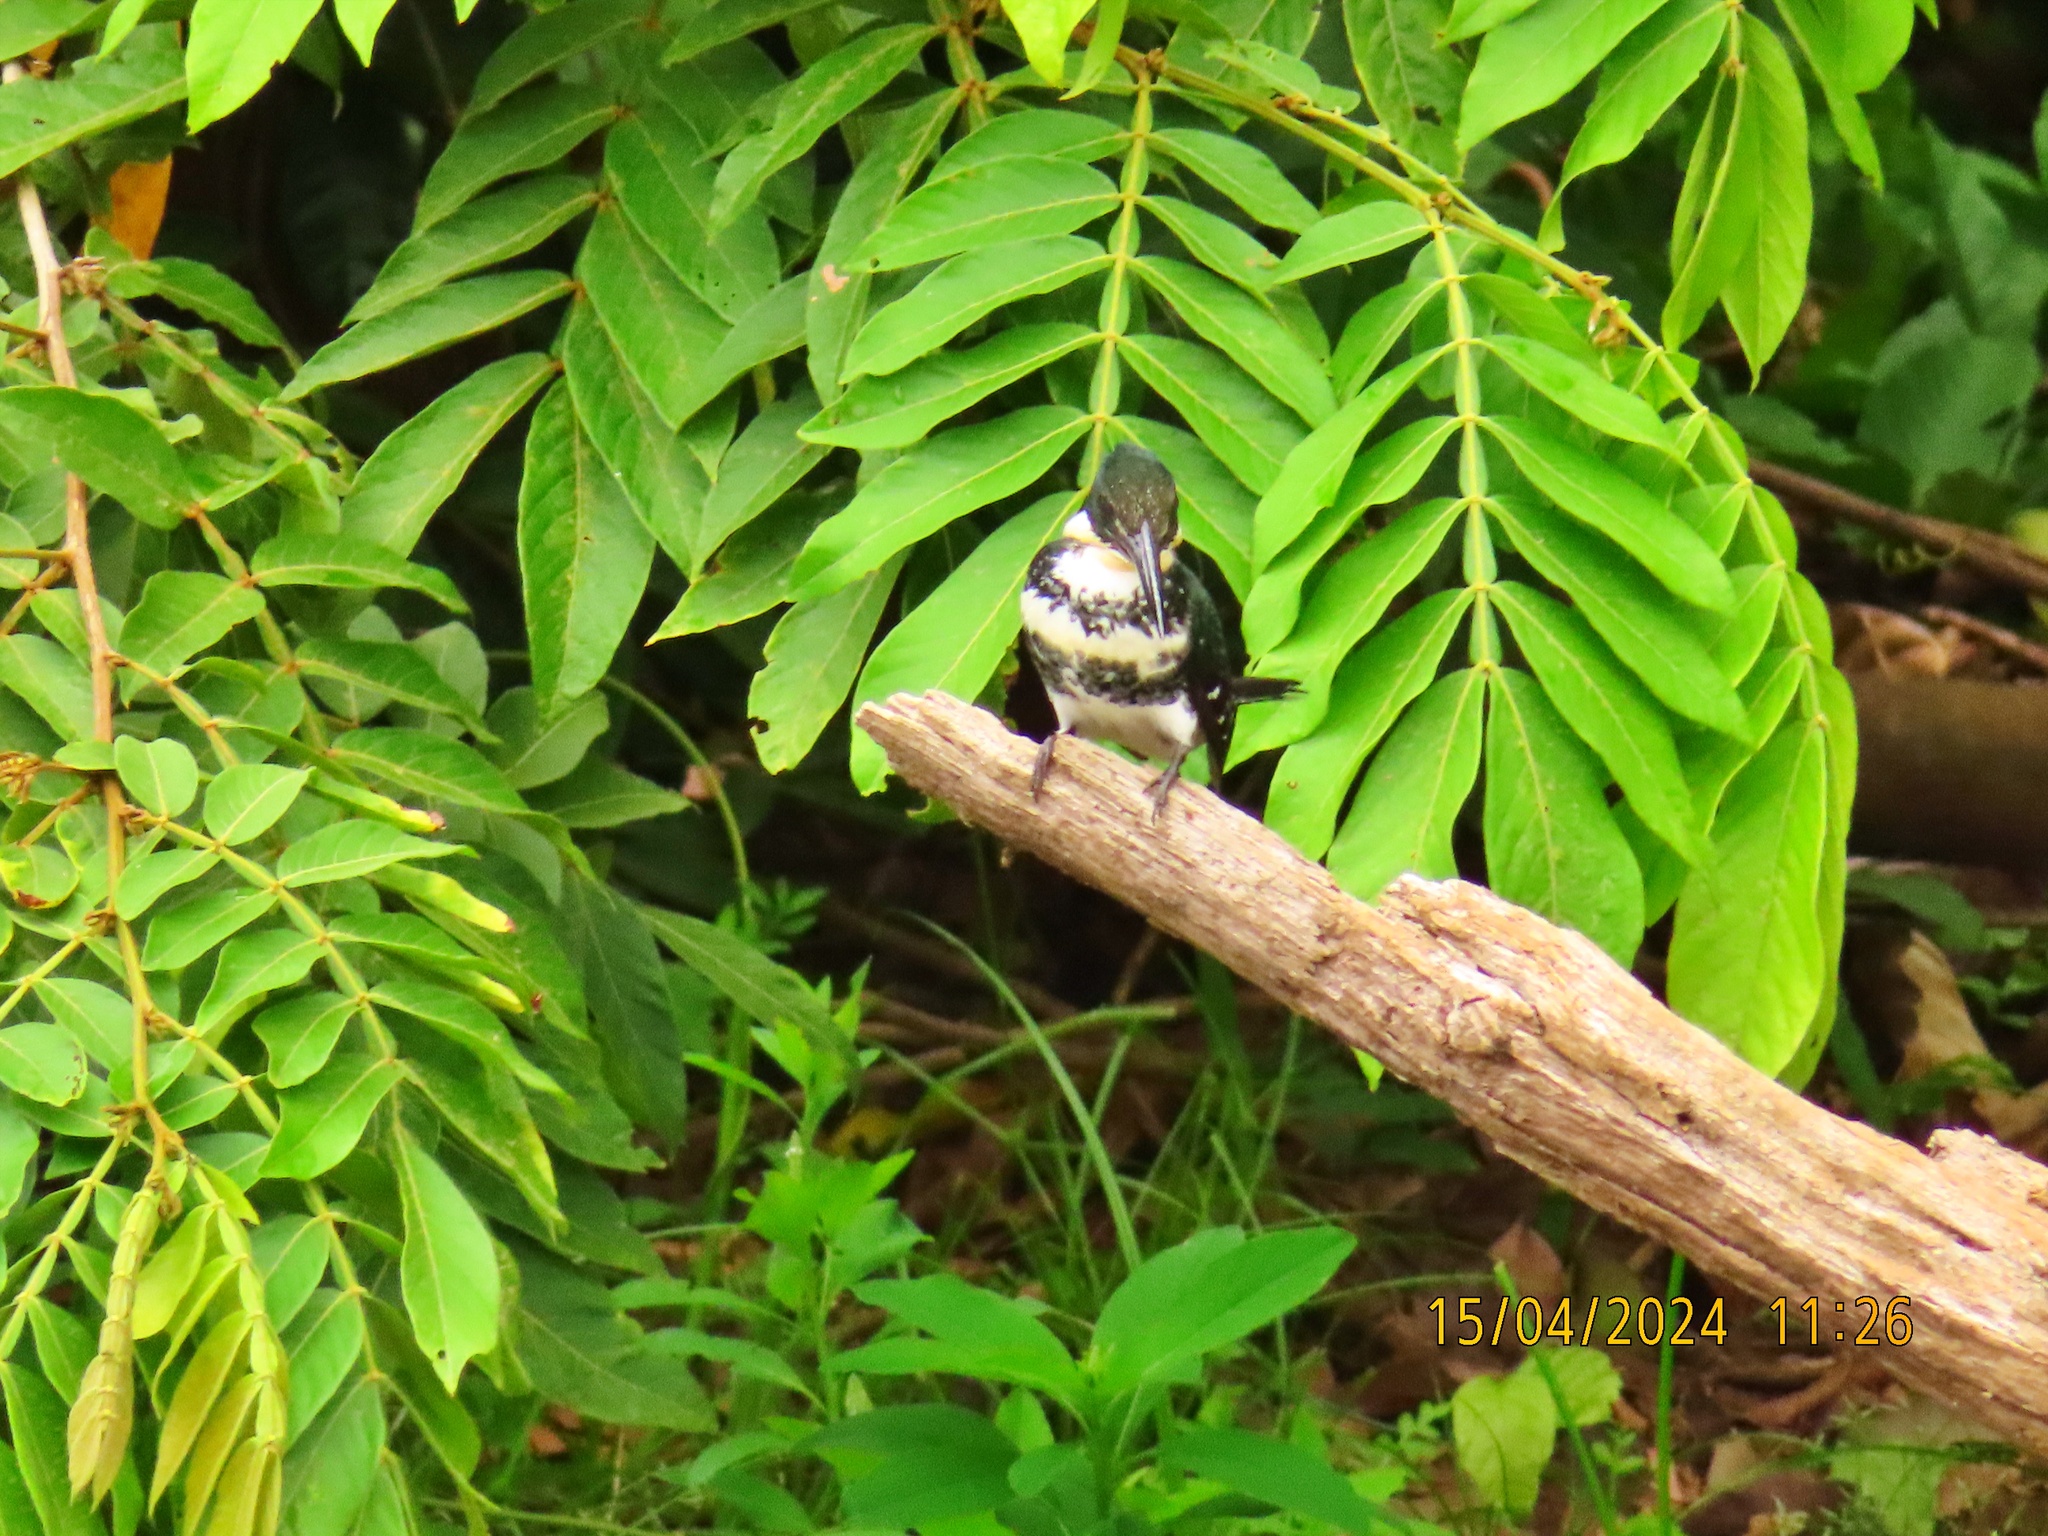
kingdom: Animalia
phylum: Chordata
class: Aves
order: Coraciiformes
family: Alcedinidae
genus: Chloroceryle
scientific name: Chloroceryle americana
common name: Green kingfisher
